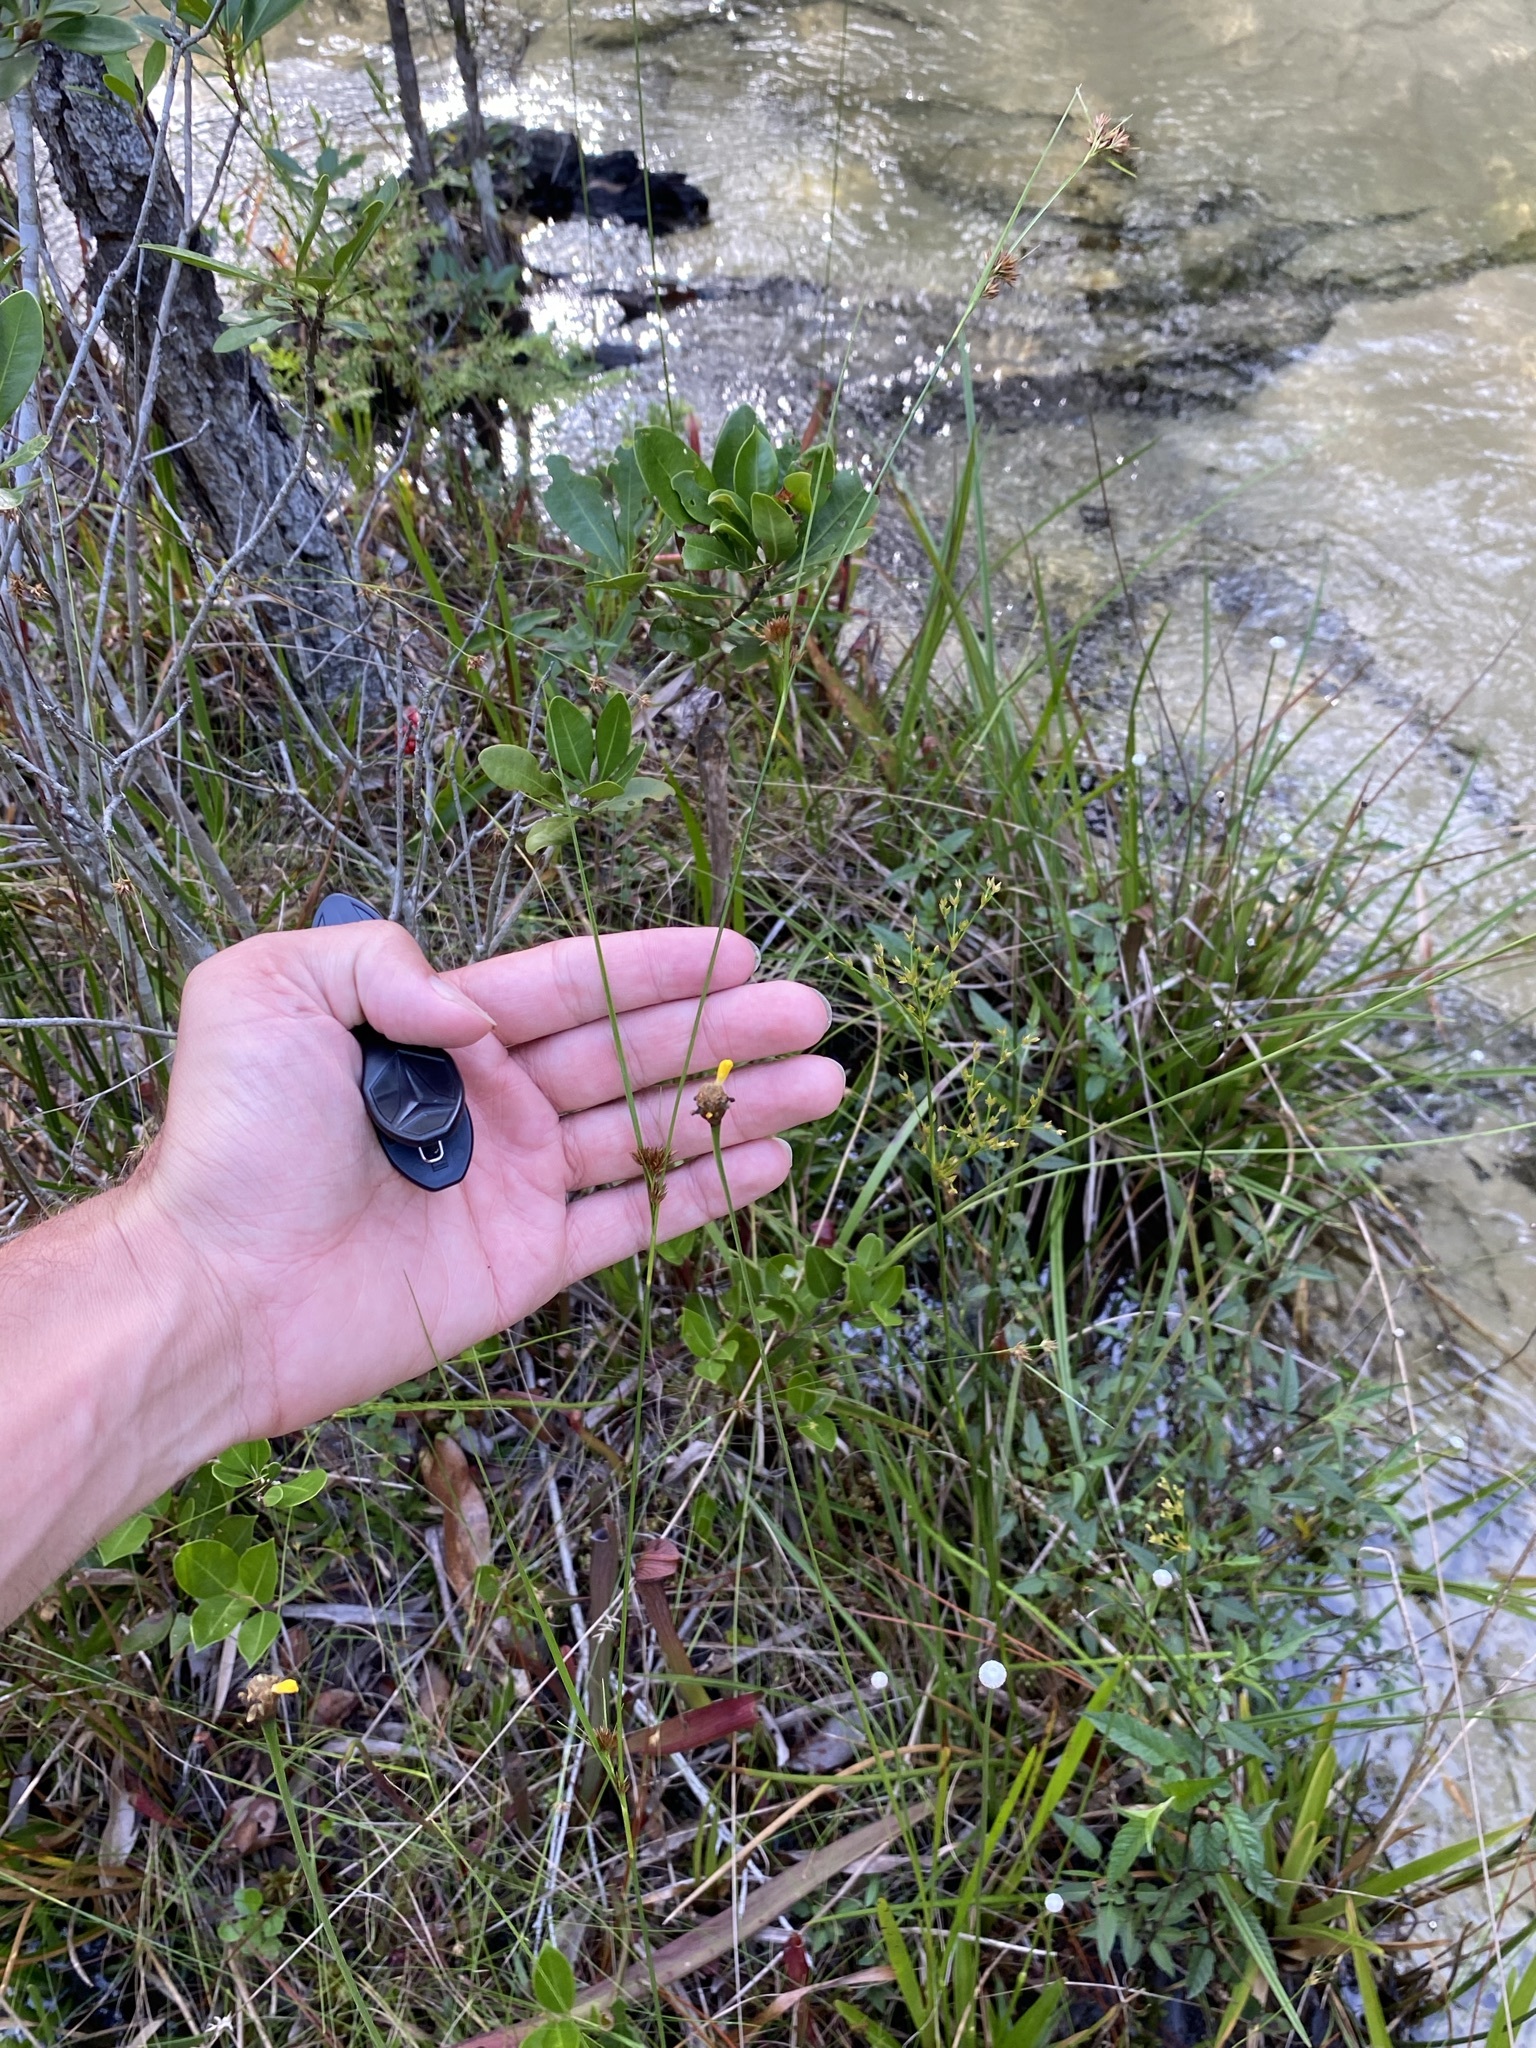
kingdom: Plantae
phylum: Tracheophyta
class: Liliopsida
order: Poales
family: Cyperaceae
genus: Rhynchospora
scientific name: Rhynchospora chalarocephala
